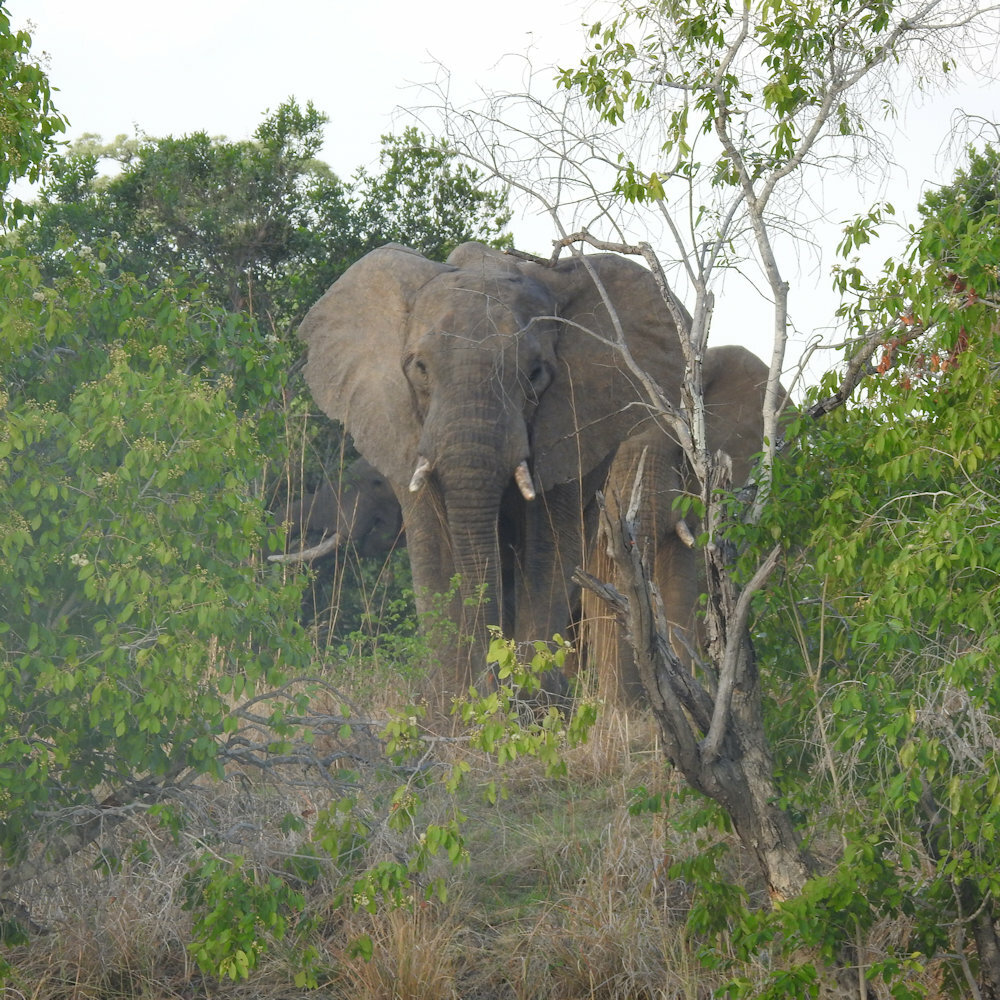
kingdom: Animalia
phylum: Chordata
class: Mammalia
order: Proboscidea
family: Elephantidae
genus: Loxodonta
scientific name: Loxodonta africana
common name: African elephant
